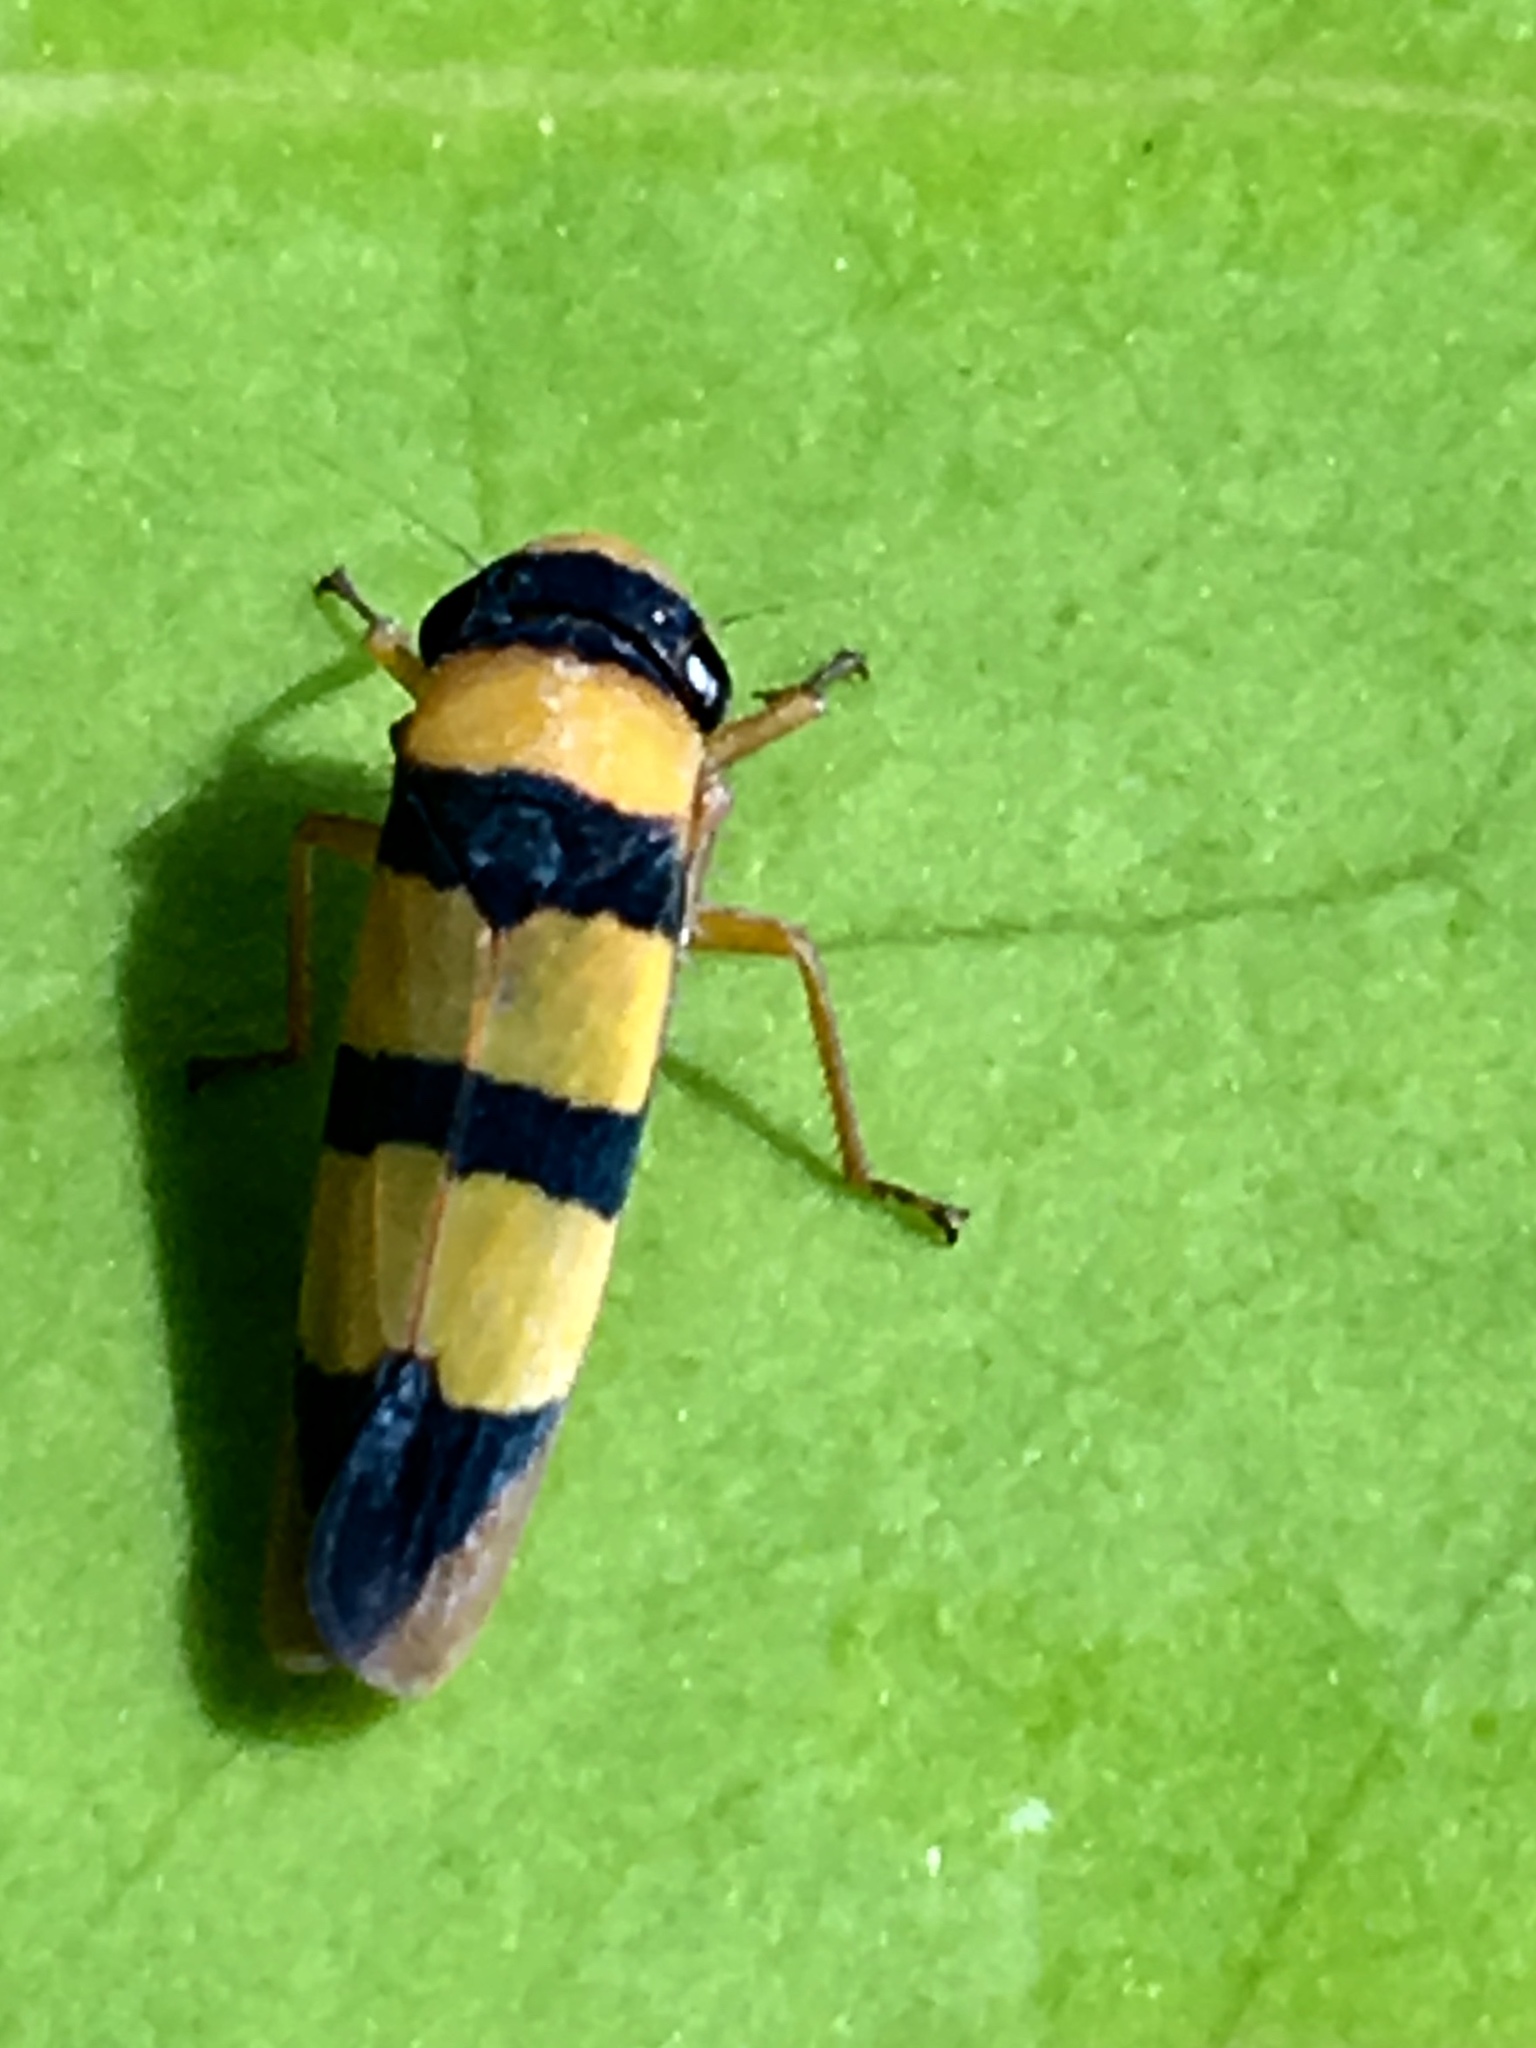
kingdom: Animalia
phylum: Arthropoda
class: Insecta
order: Hemiptera
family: Cicadellidae
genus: Oragua
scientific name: Oragua gregoirei
